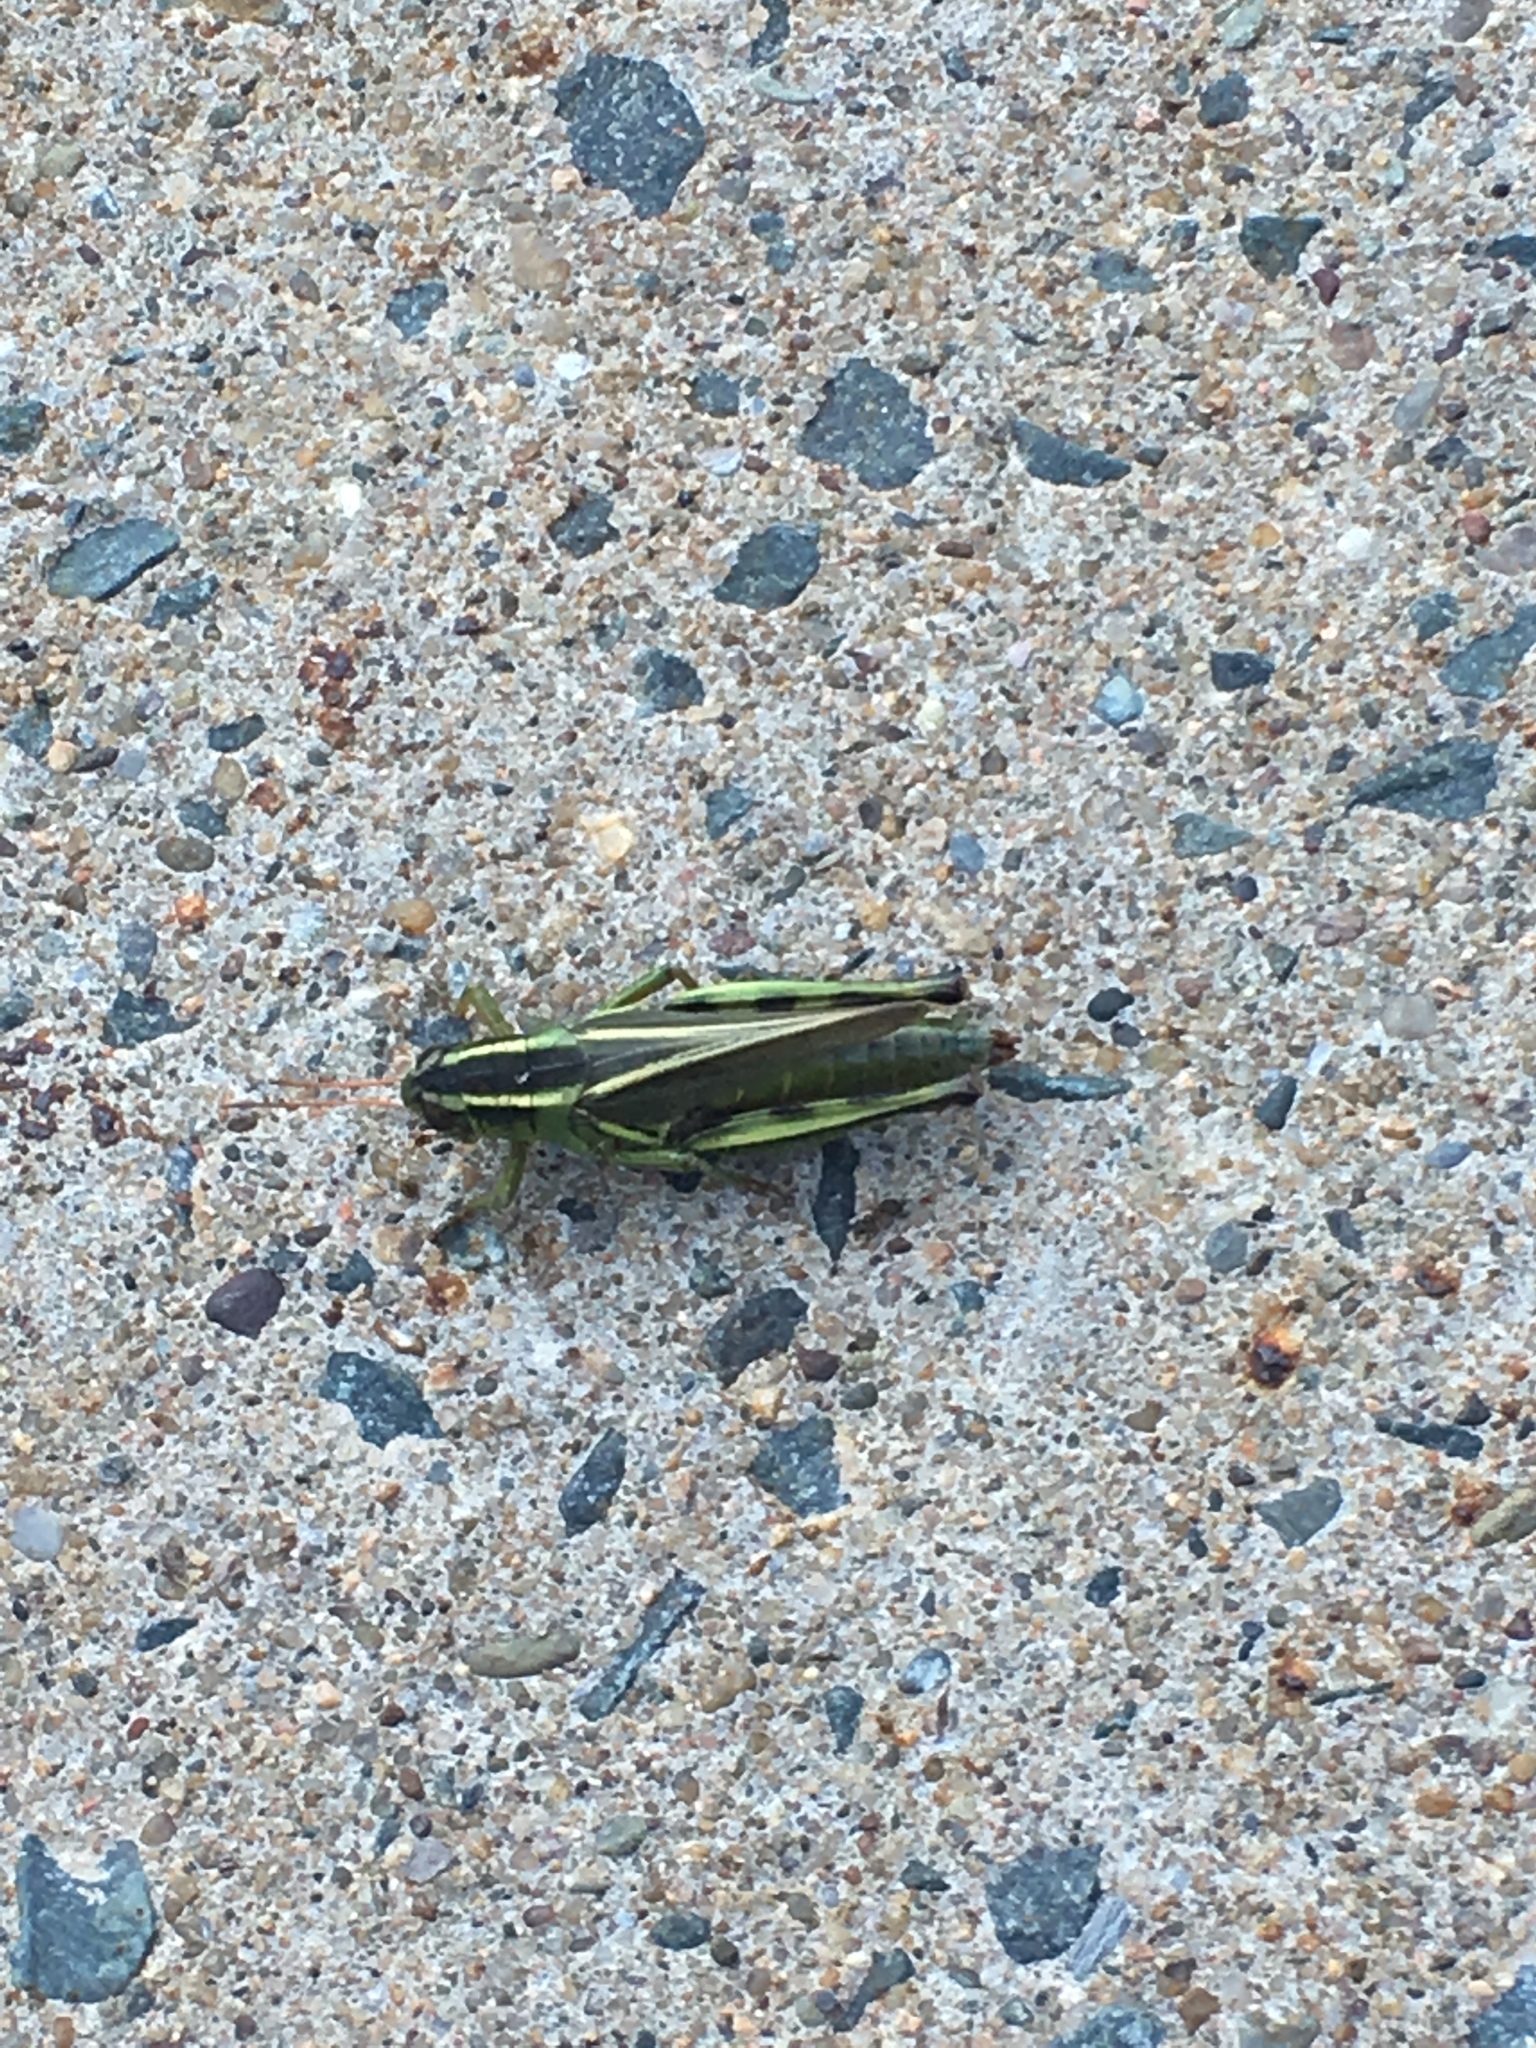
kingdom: Animalia
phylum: Arthropoda
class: Insecta
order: Orthoptera
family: Acrididae
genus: Melanoplus
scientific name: Melanoplus bivittatus
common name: Two-striped grasshopper
